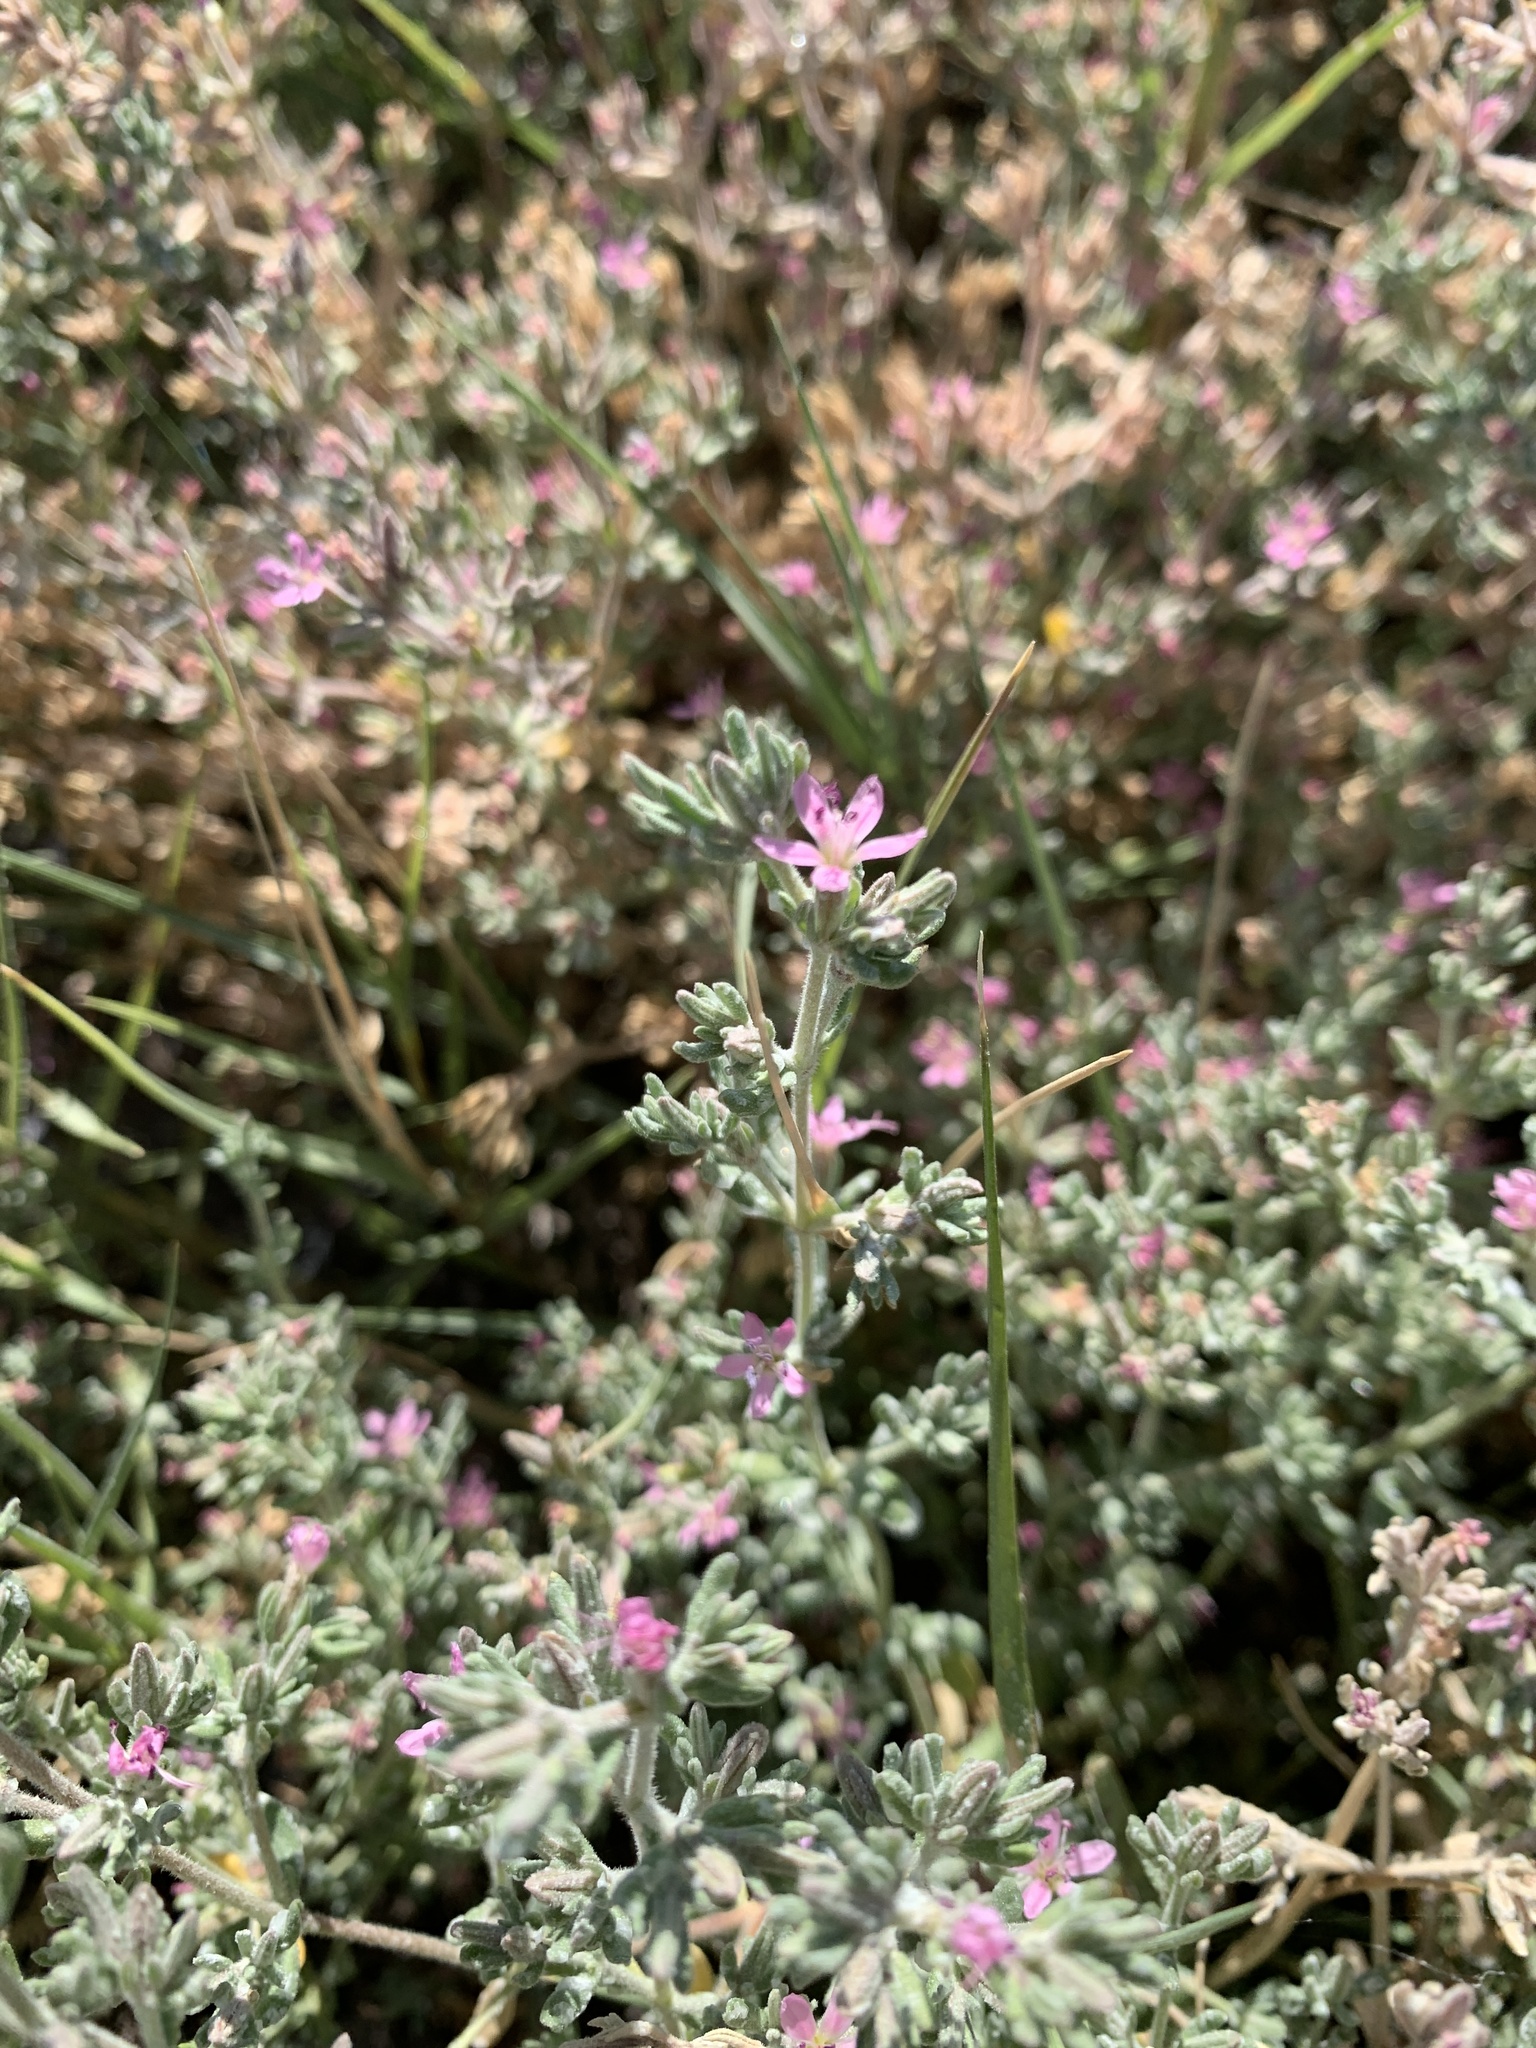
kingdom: Plantae
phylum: Tracheophyta
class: Magnoliopsida
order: Caryophyllales
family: Frankeniaceae
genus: Frankenia
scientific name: Frankenia salina
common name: Alkali seaheath
